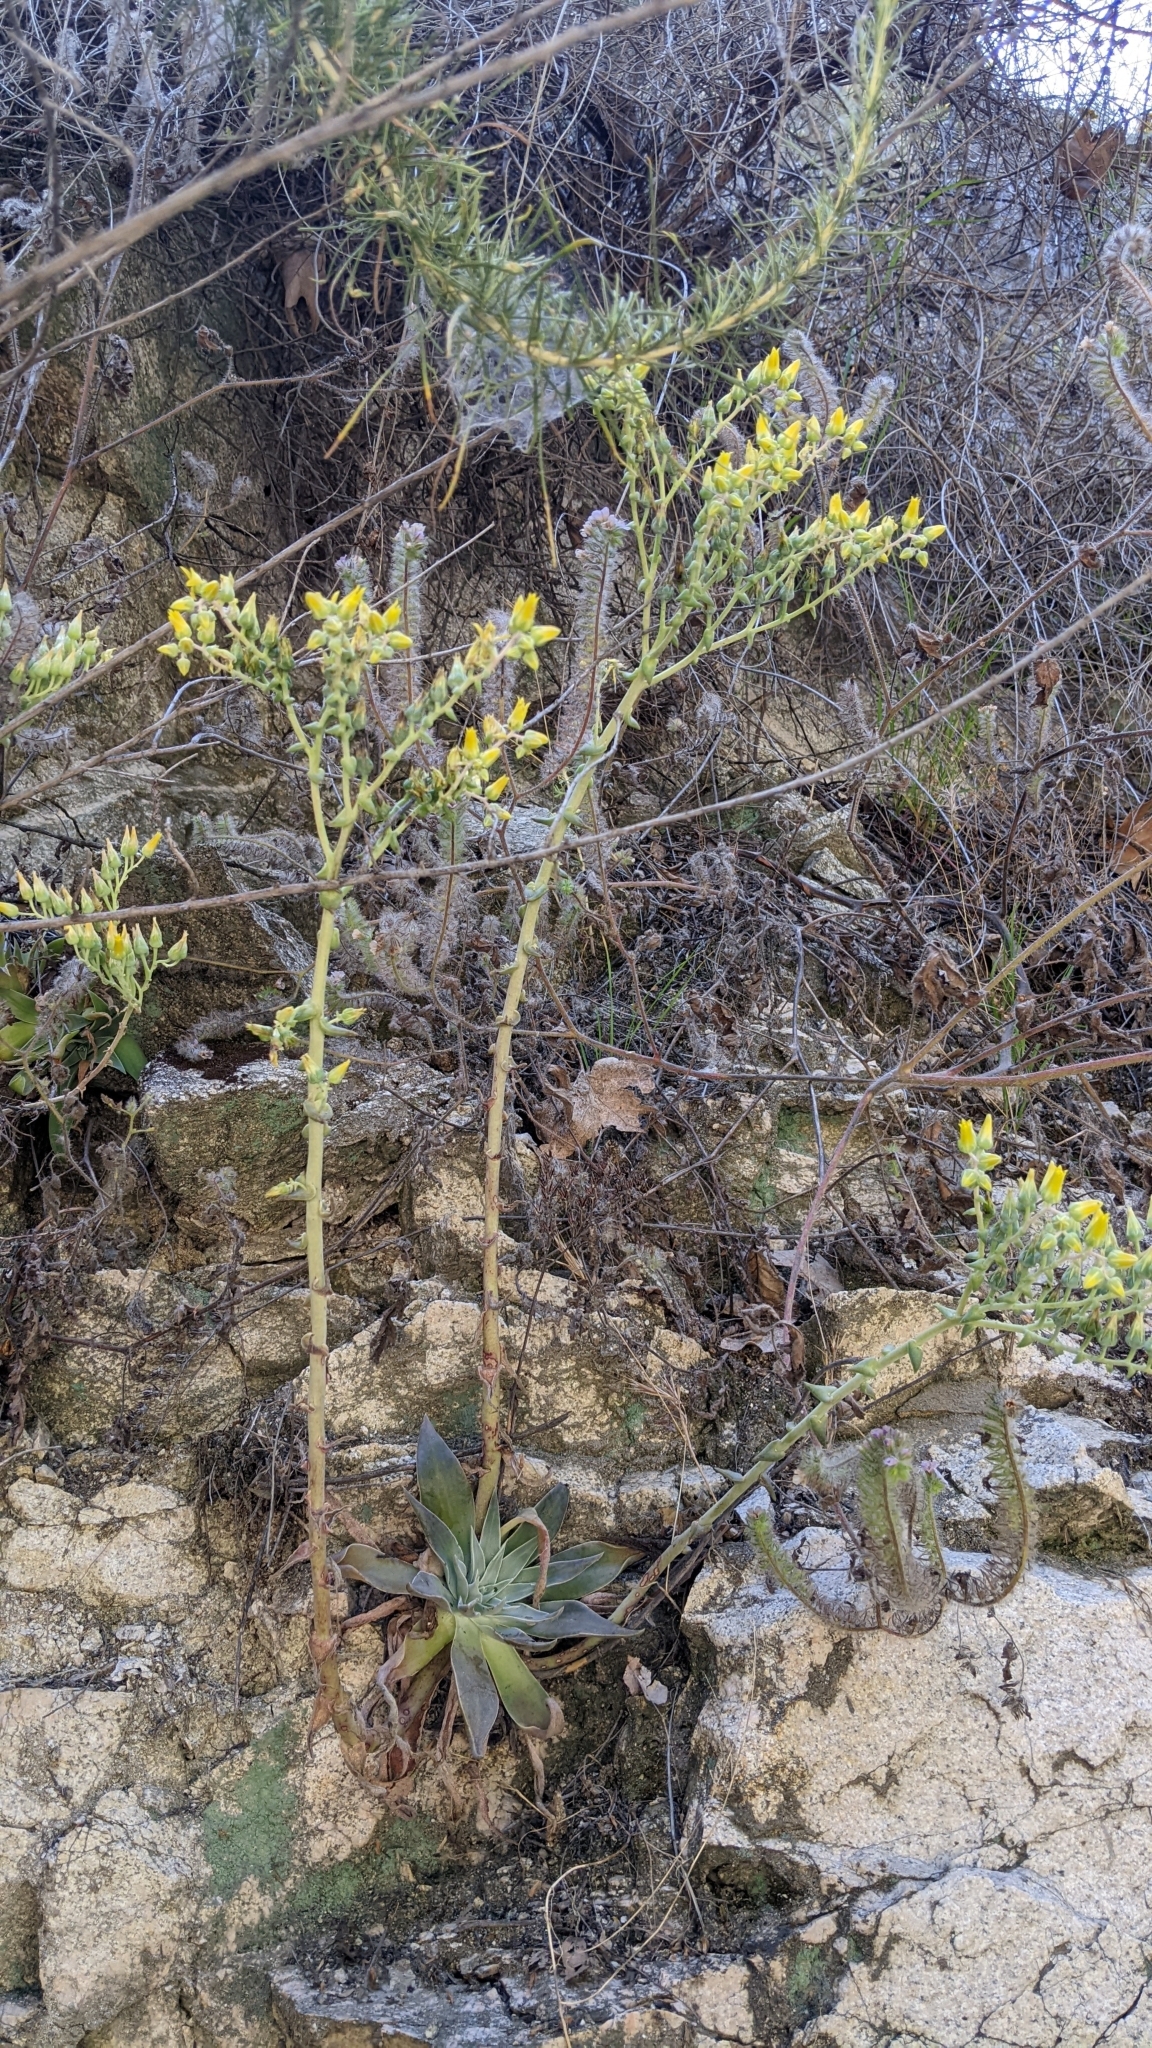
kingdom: Plantae
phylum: Tracheophyta
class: Magnoliopsida
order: Saxifragales
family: Crassulaceae
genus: Dudleya
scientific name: Dudleya lanceolata
